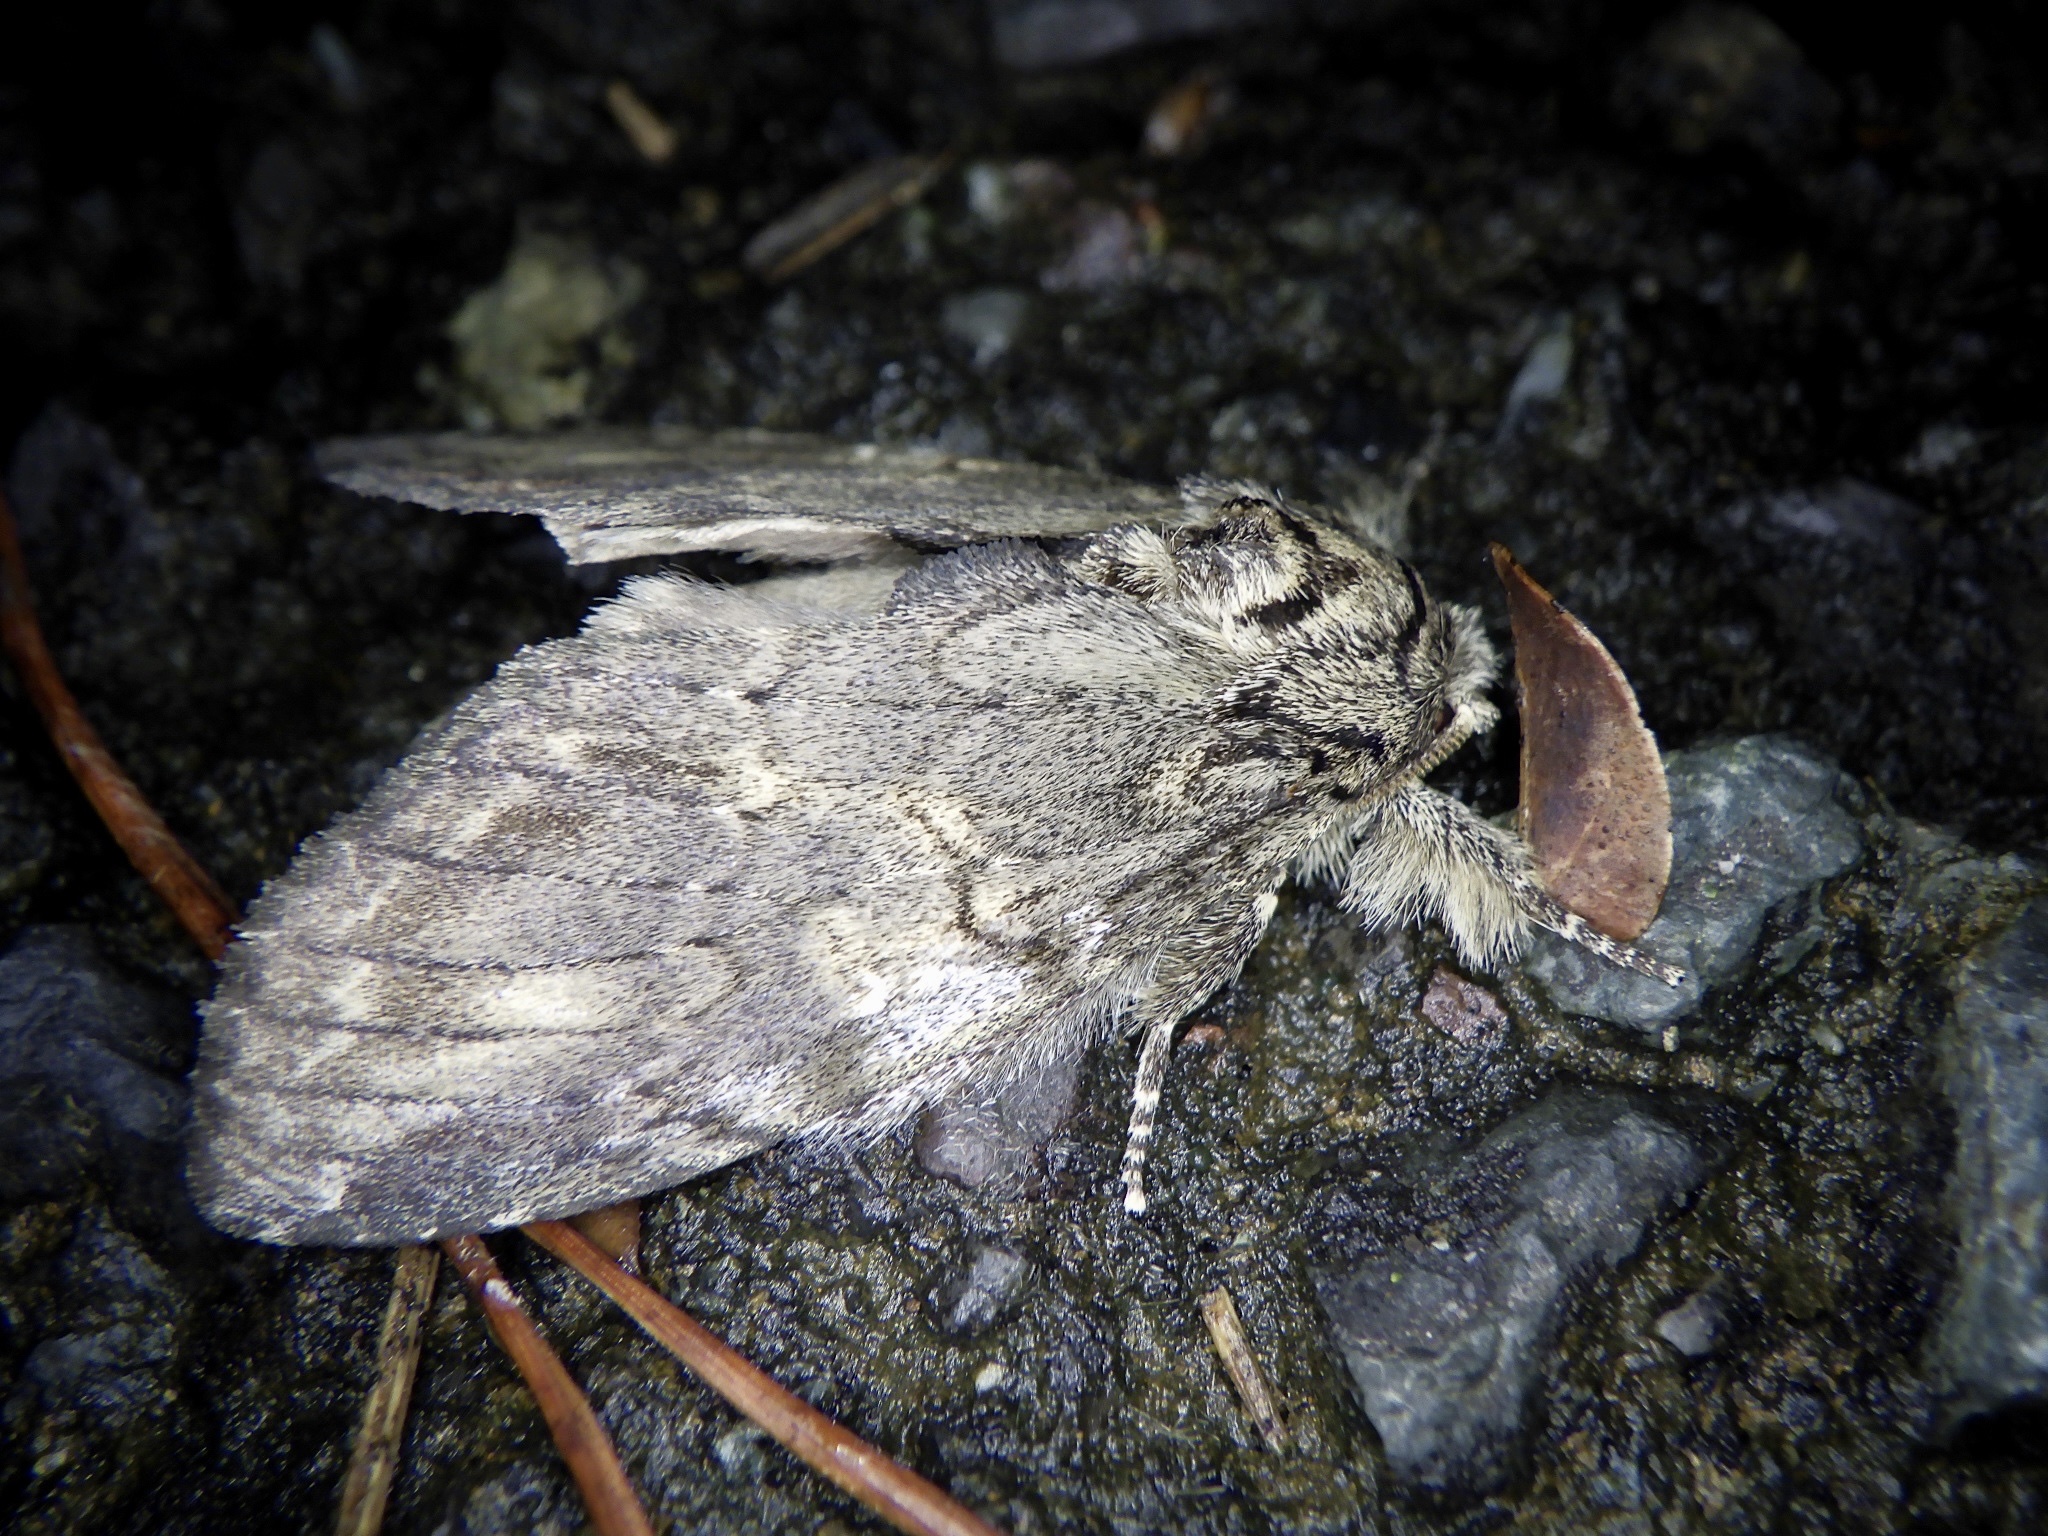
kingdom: Animalia
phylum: Arthropoda
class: Insecta
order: Lepidoptera
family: Notodontidae
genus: Peridea
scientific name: Peridea gigantea
